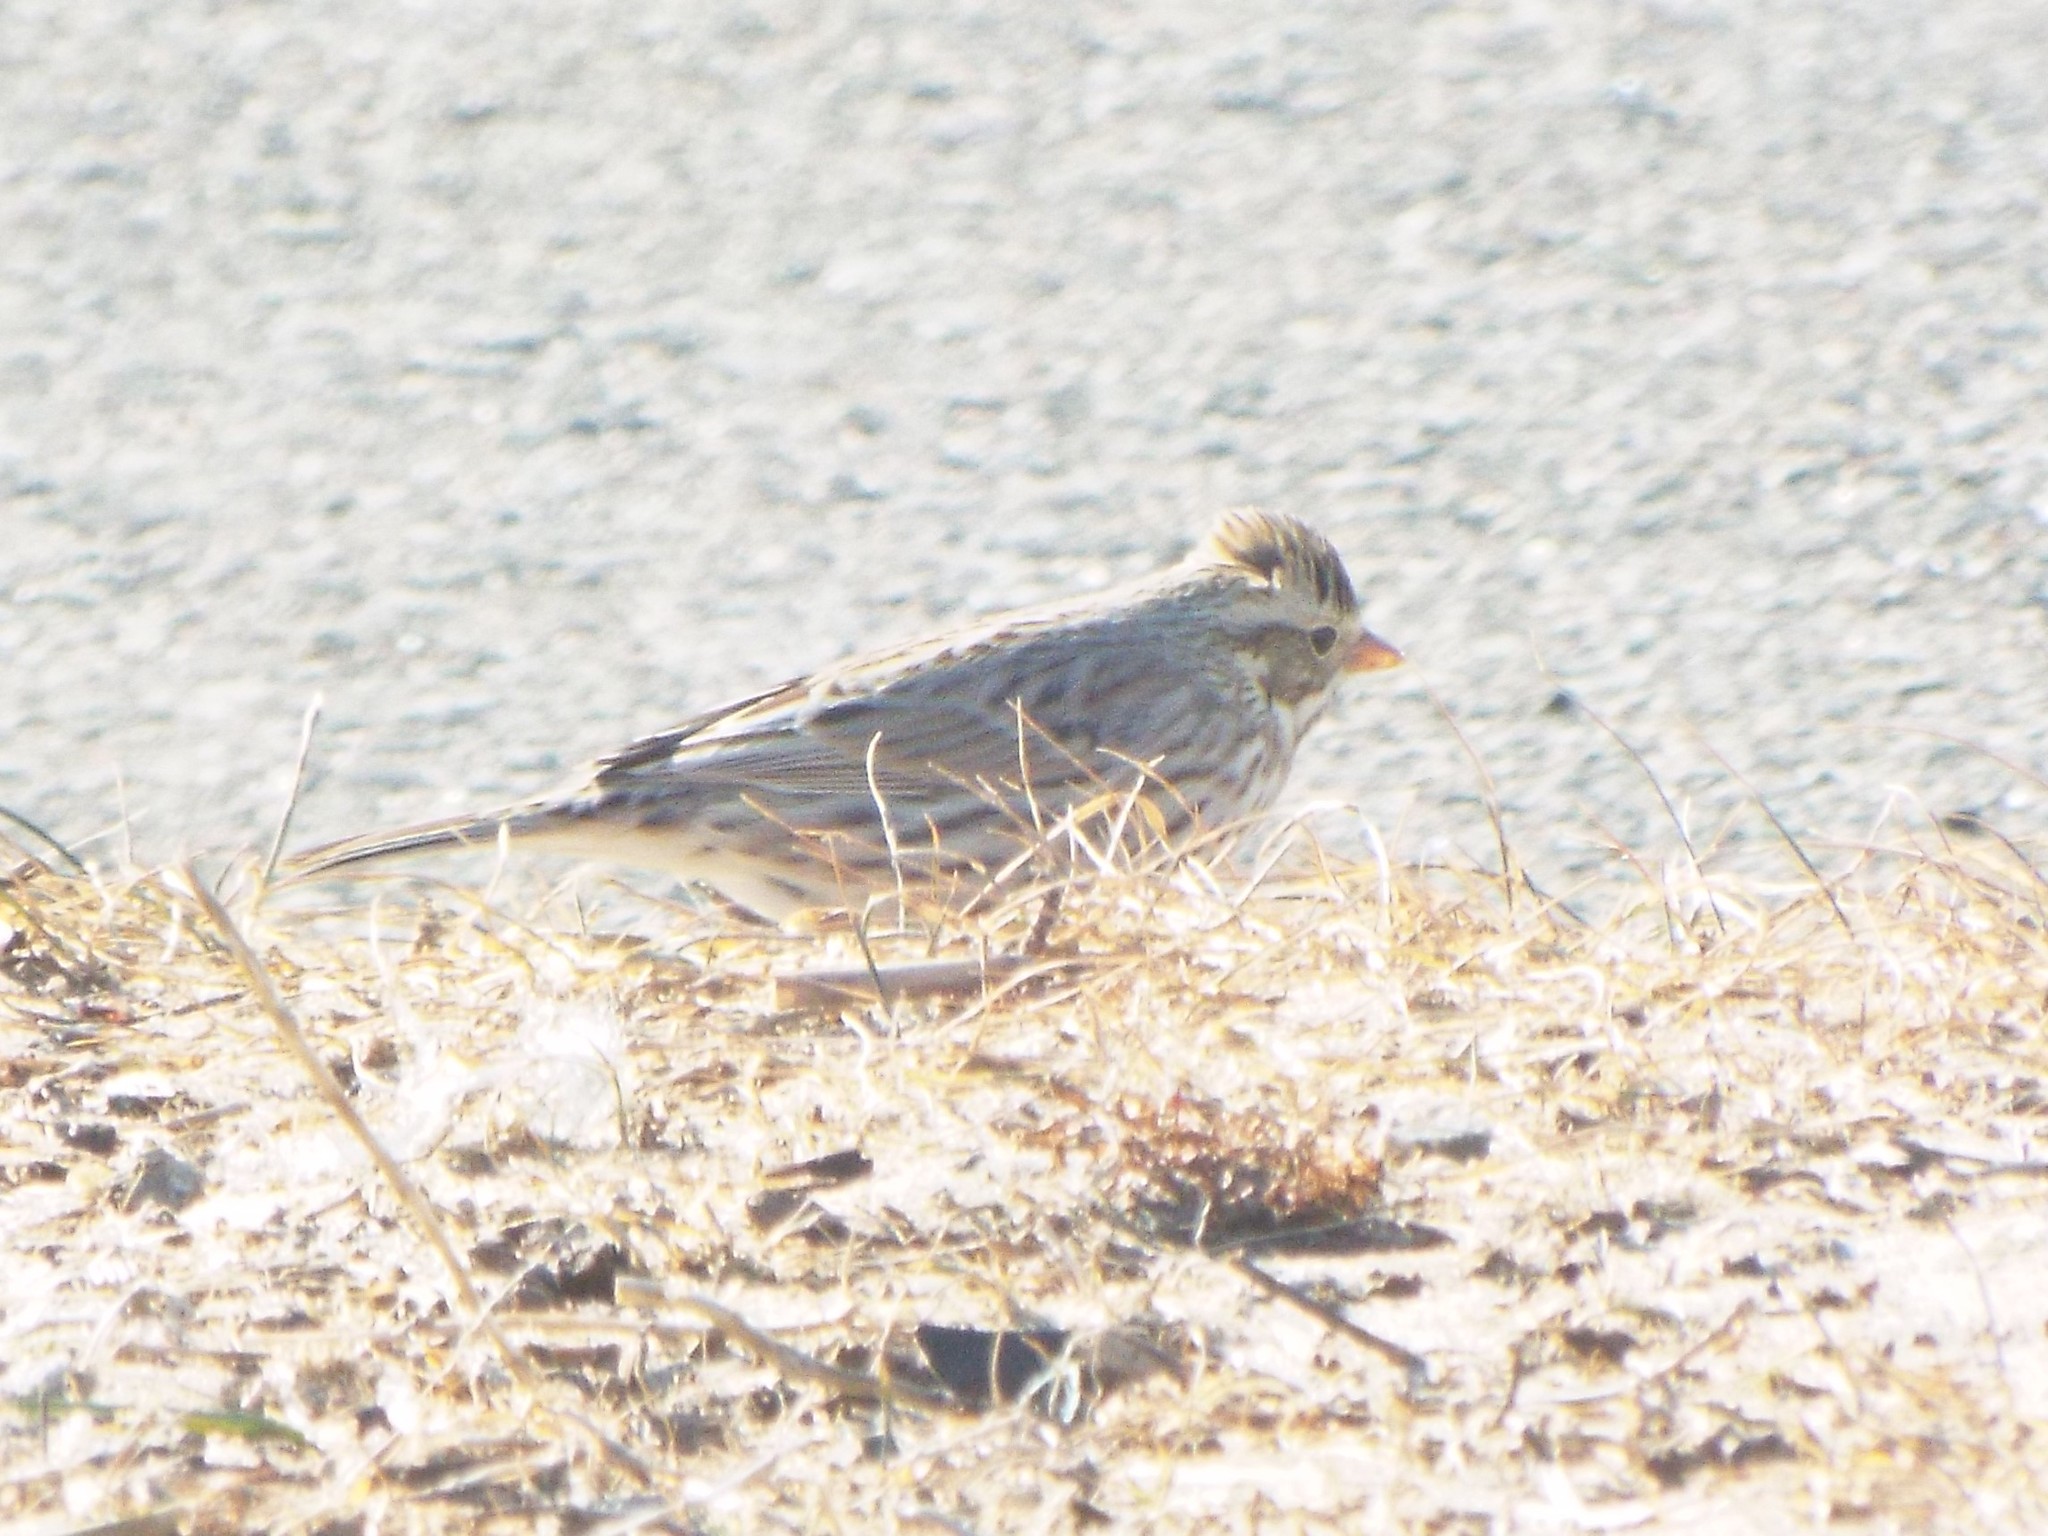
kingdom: Animalia
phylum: Chordata
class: Aves
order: Passeriformes
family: Passerellidae
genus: Passerculus
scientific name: Passerculus sandwichensis
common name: Savannah sparrow
